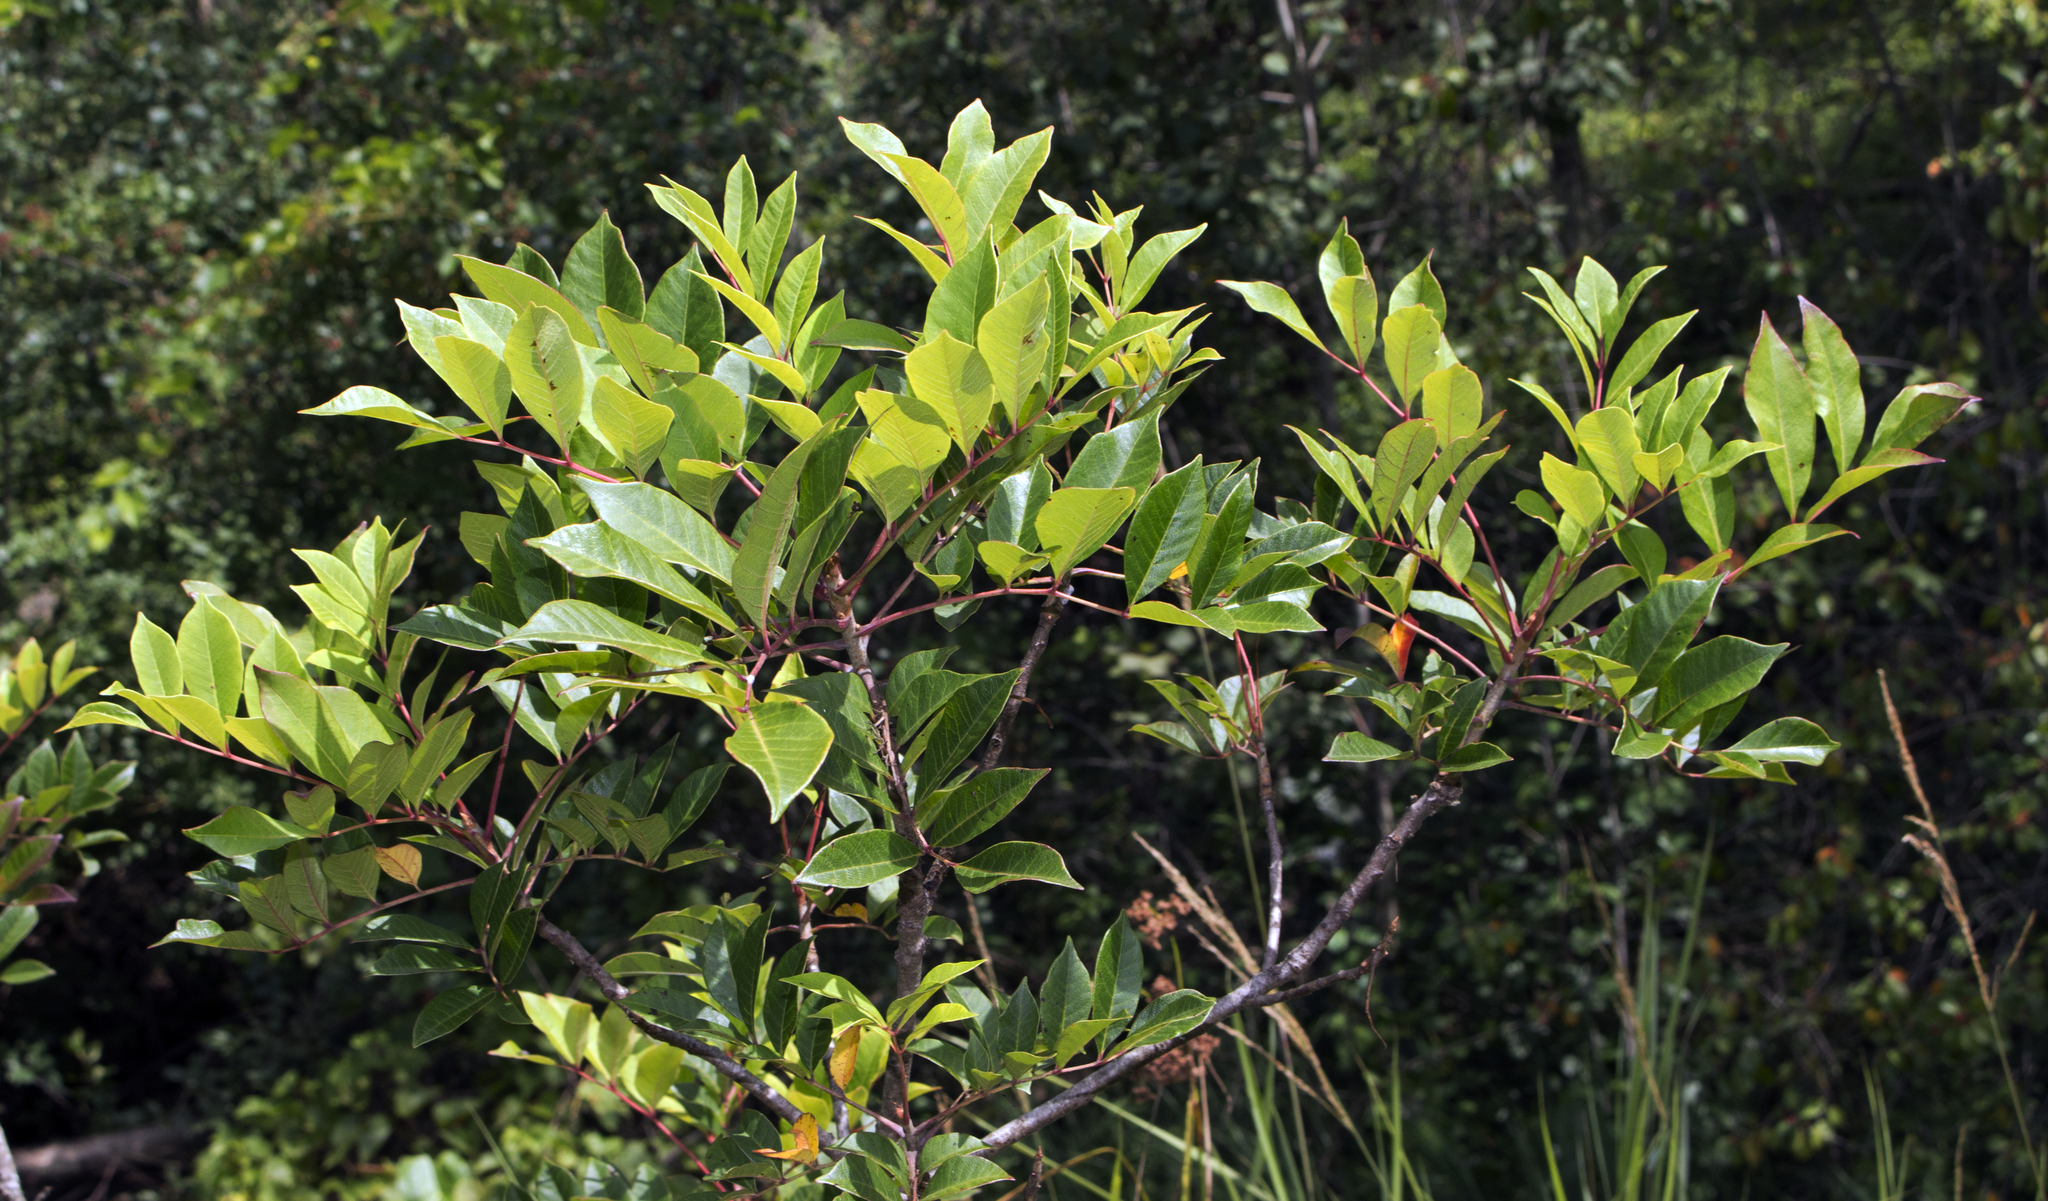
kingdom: Plantae
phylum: Tracheophyta
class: Magnoliopsida
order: Sapindales
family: Anacardiaceae
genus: Toxicodendron
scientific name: Toxicodendron vernix
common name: Poison sumac
